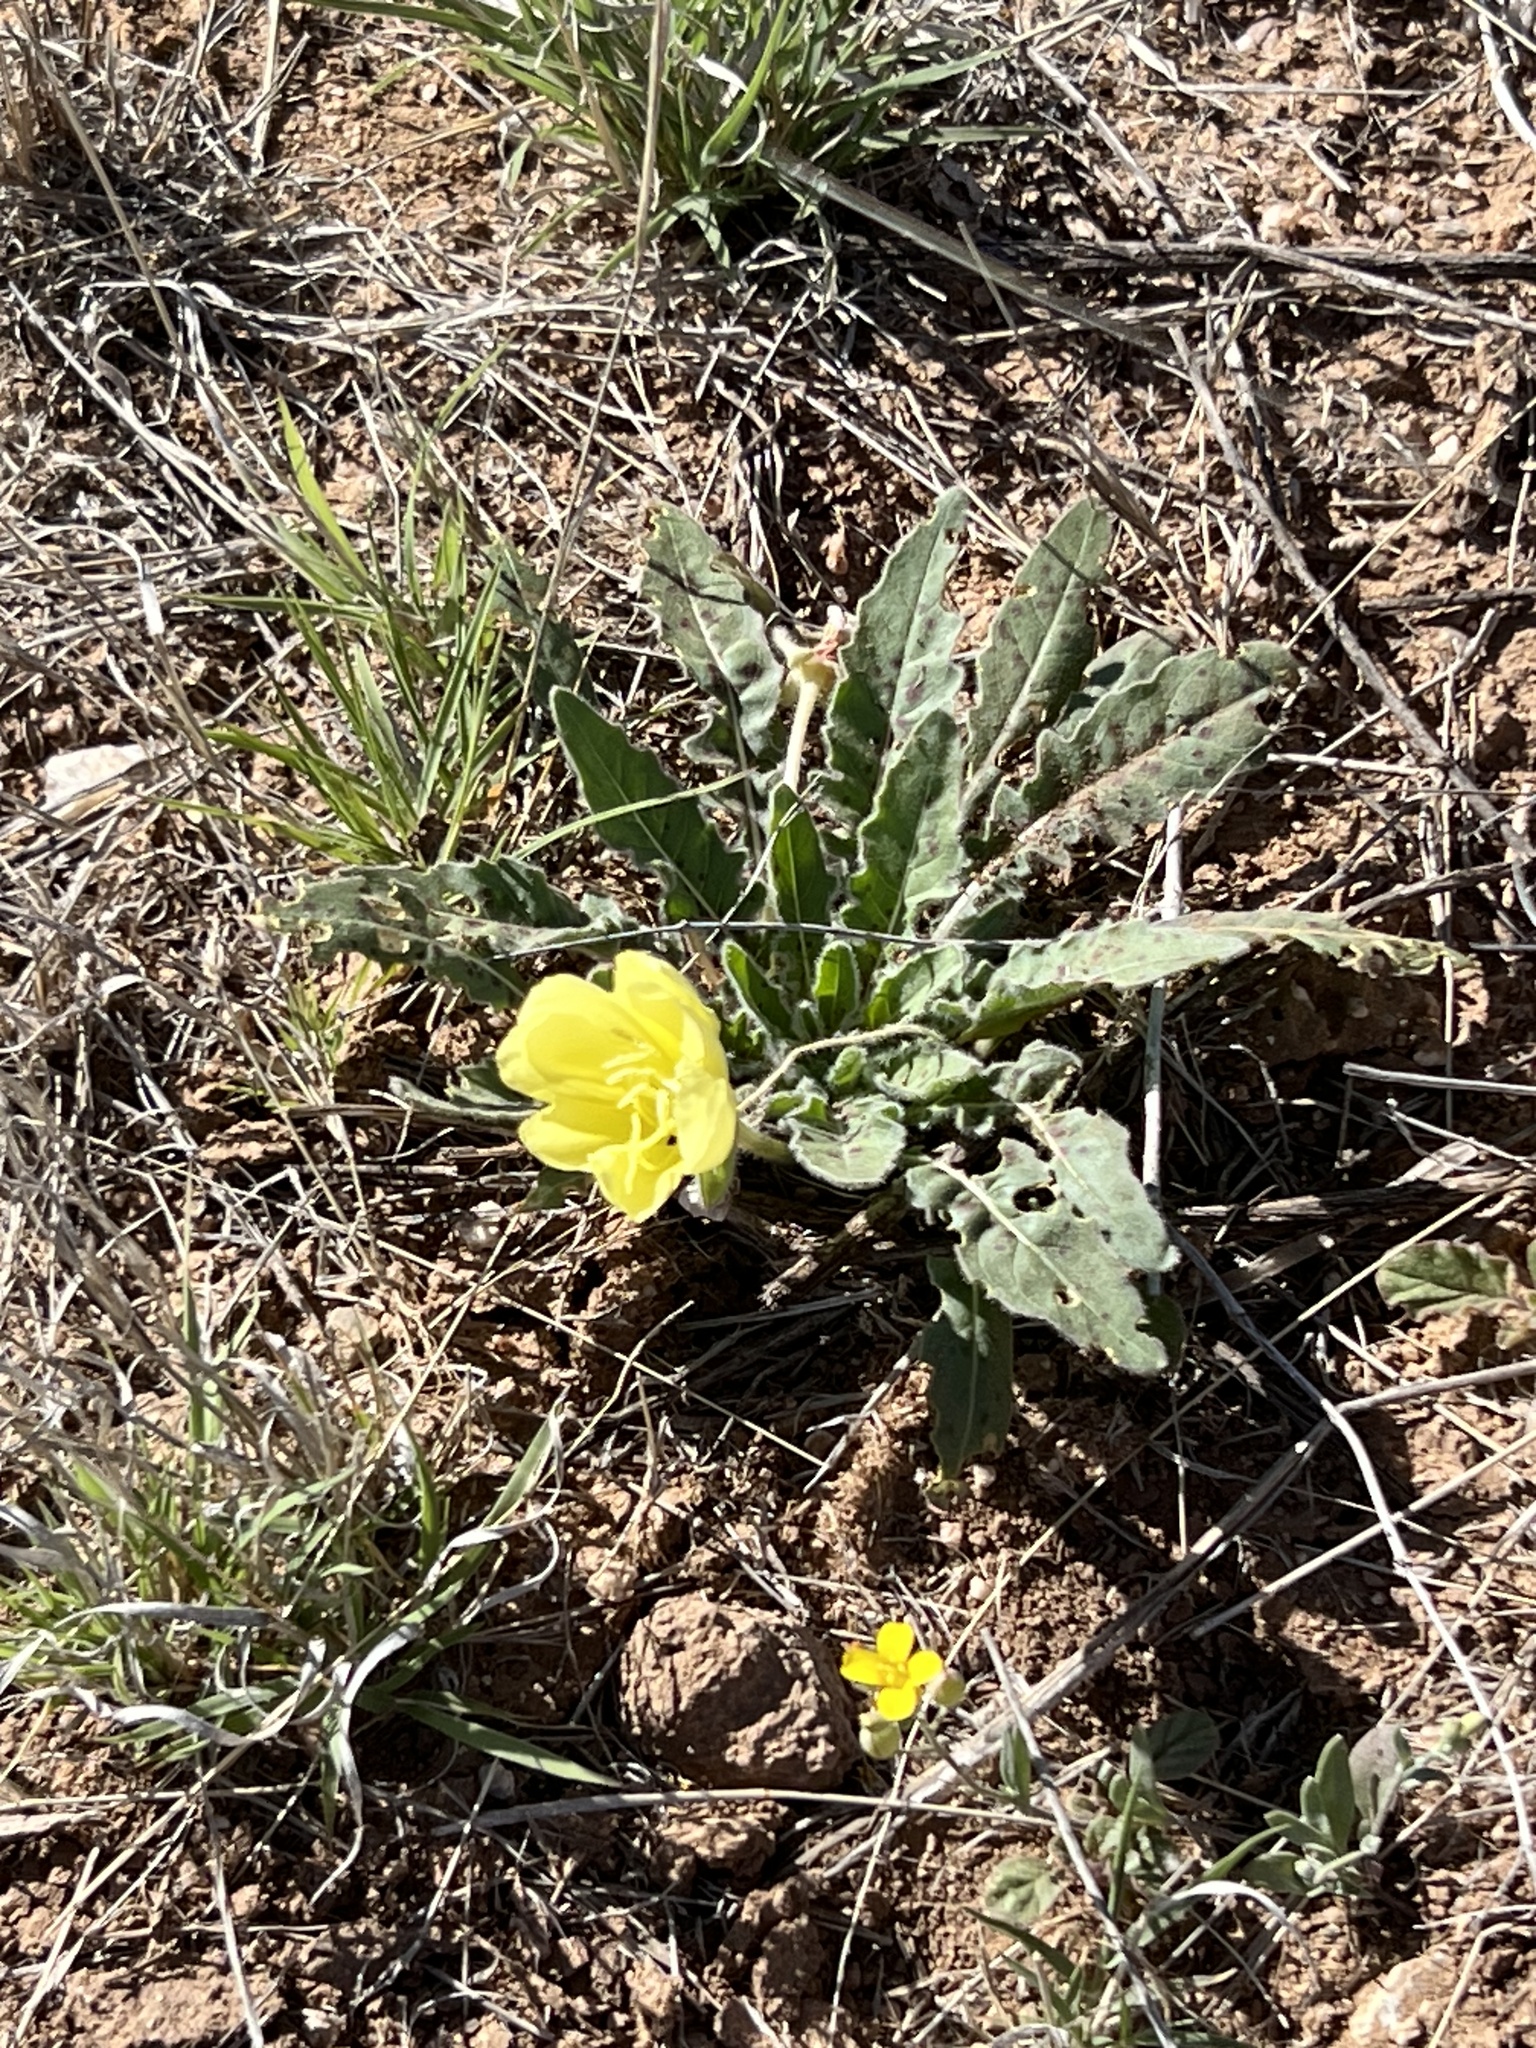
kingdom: Plantae
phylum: Tracheophyta
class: Magnoliopsida
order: Myrtales
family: Onagraceae
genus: Oenothera
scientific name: Oenothera primiveris
